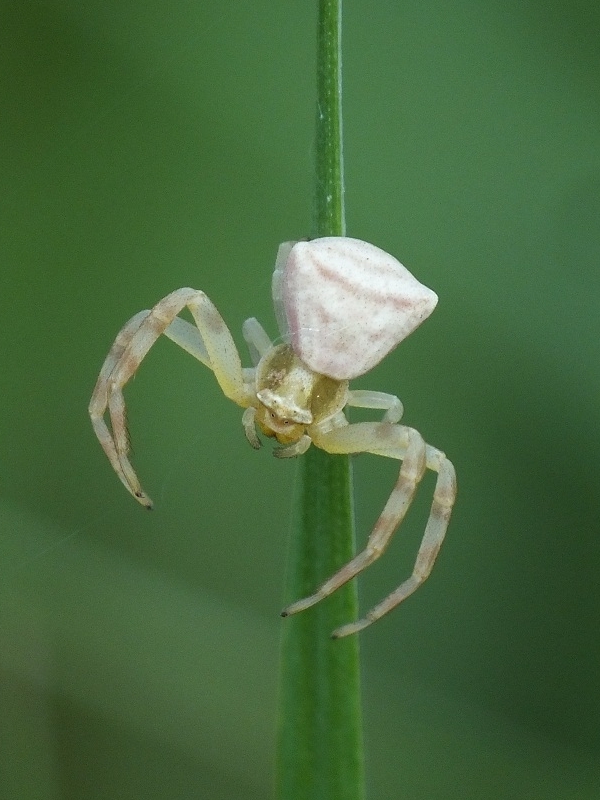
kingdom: Animalia
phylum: Arthropoda
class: Arachnida
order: Araneae
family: Thomisidae
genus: Thomisus
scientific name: Thomisus onustus
